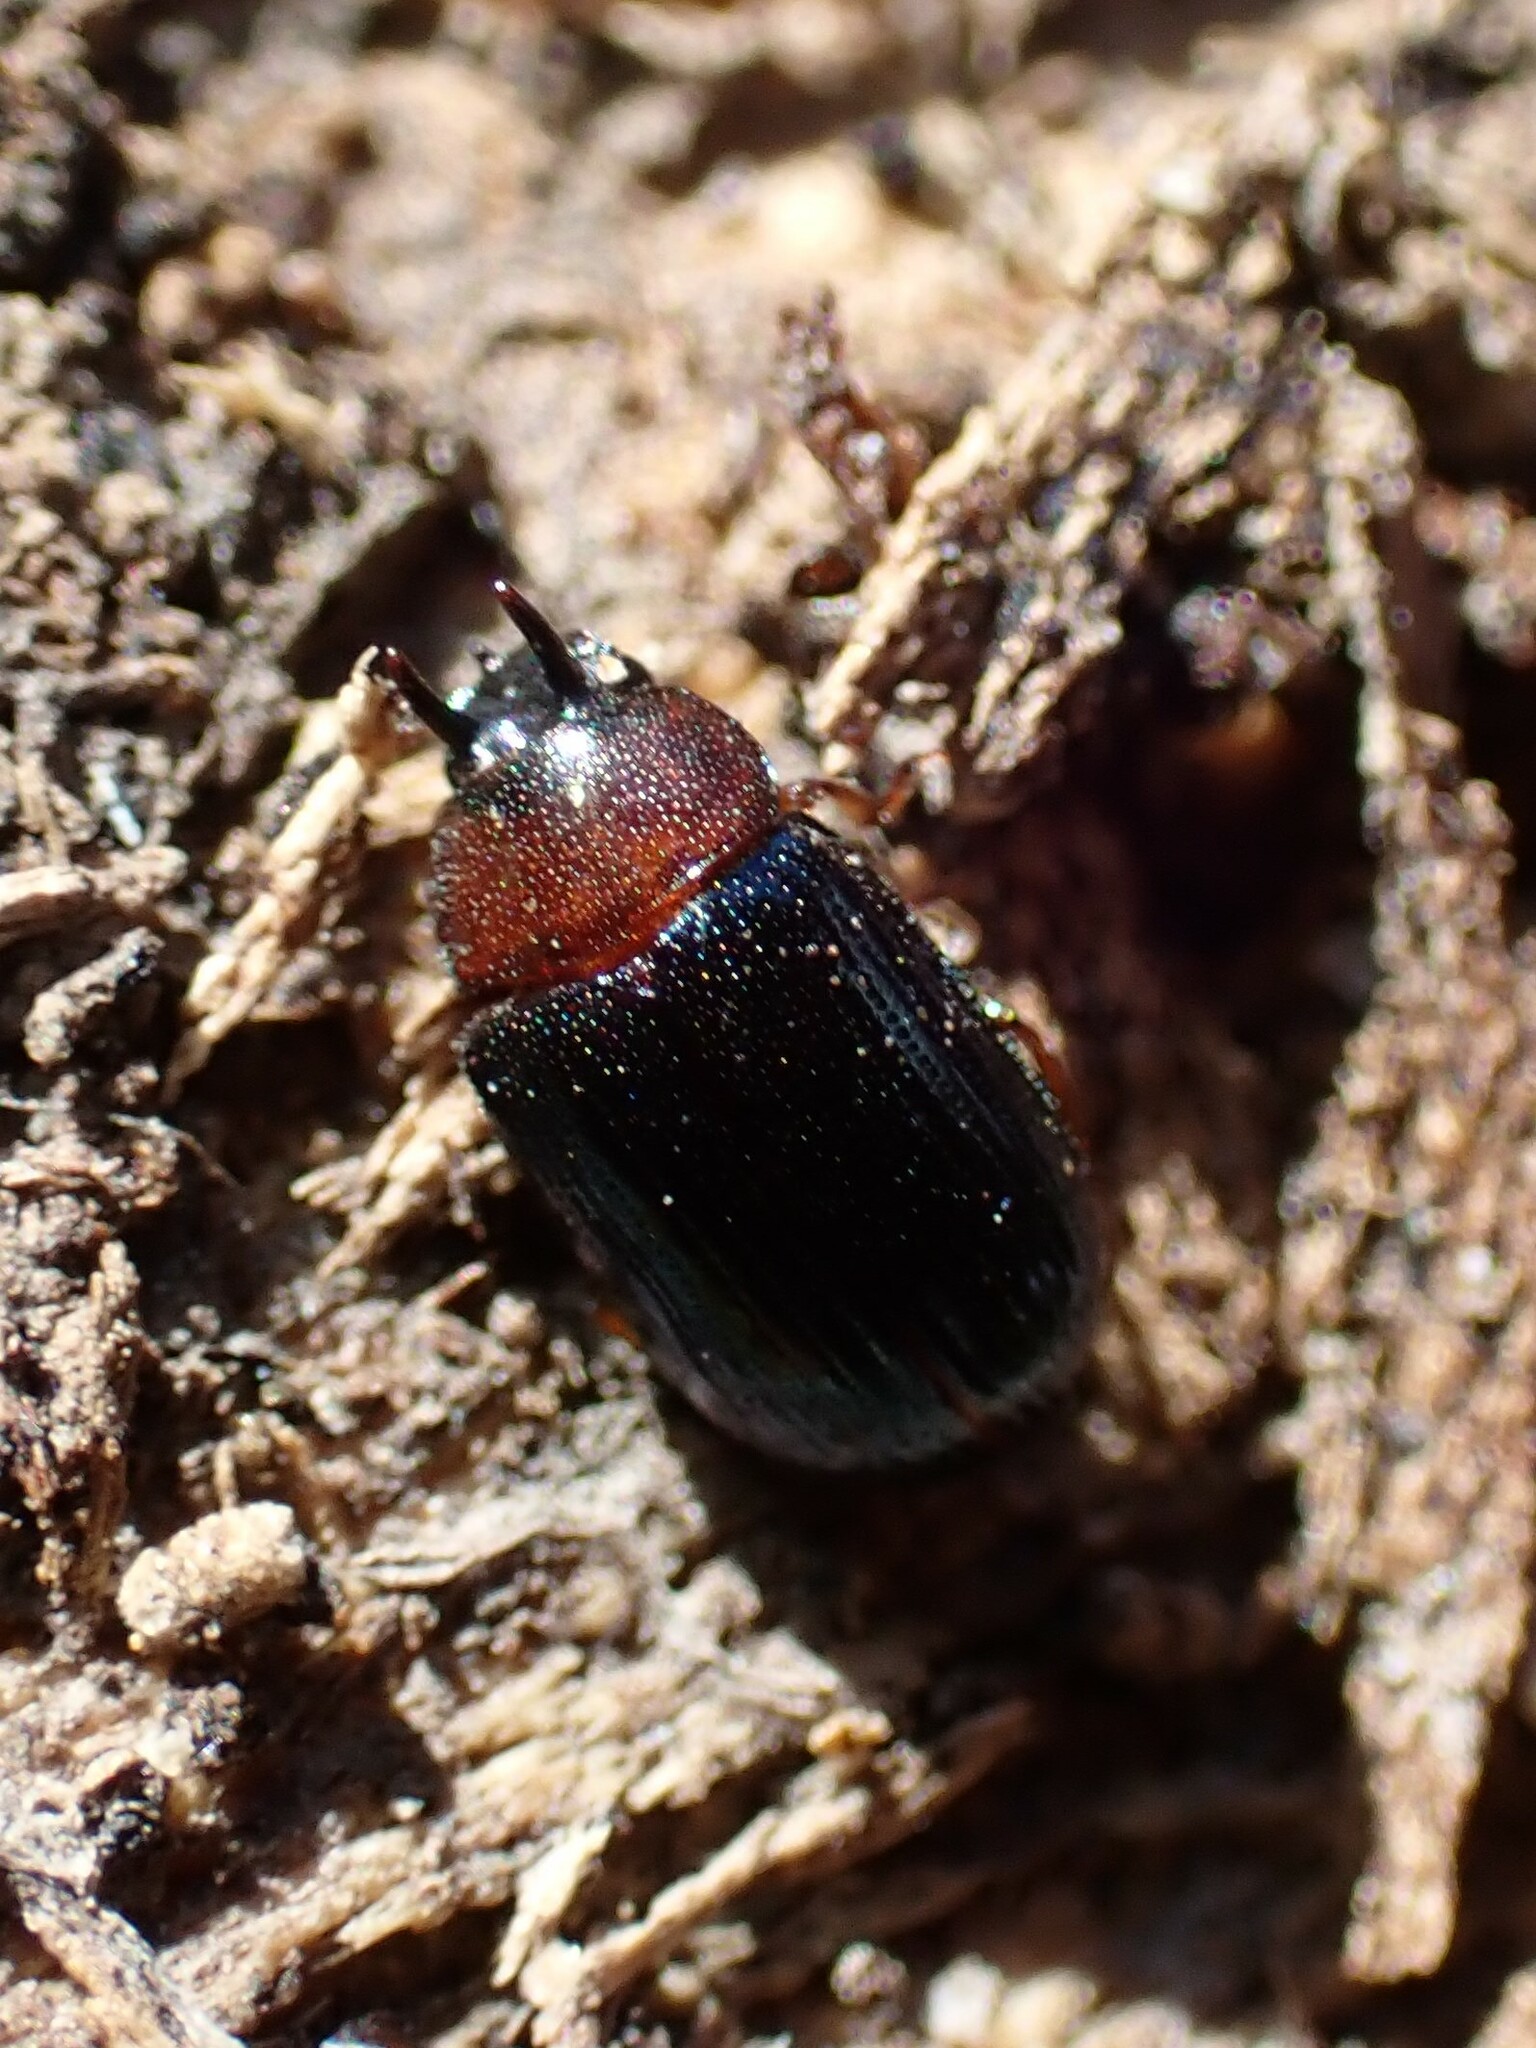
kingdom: Animalia
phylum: Arthropoda
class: Insecta
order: Coleoptera
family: Tenebrionidae
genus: Neomida
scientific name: Neomida bicornis
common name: Two-horned darkling beetle
